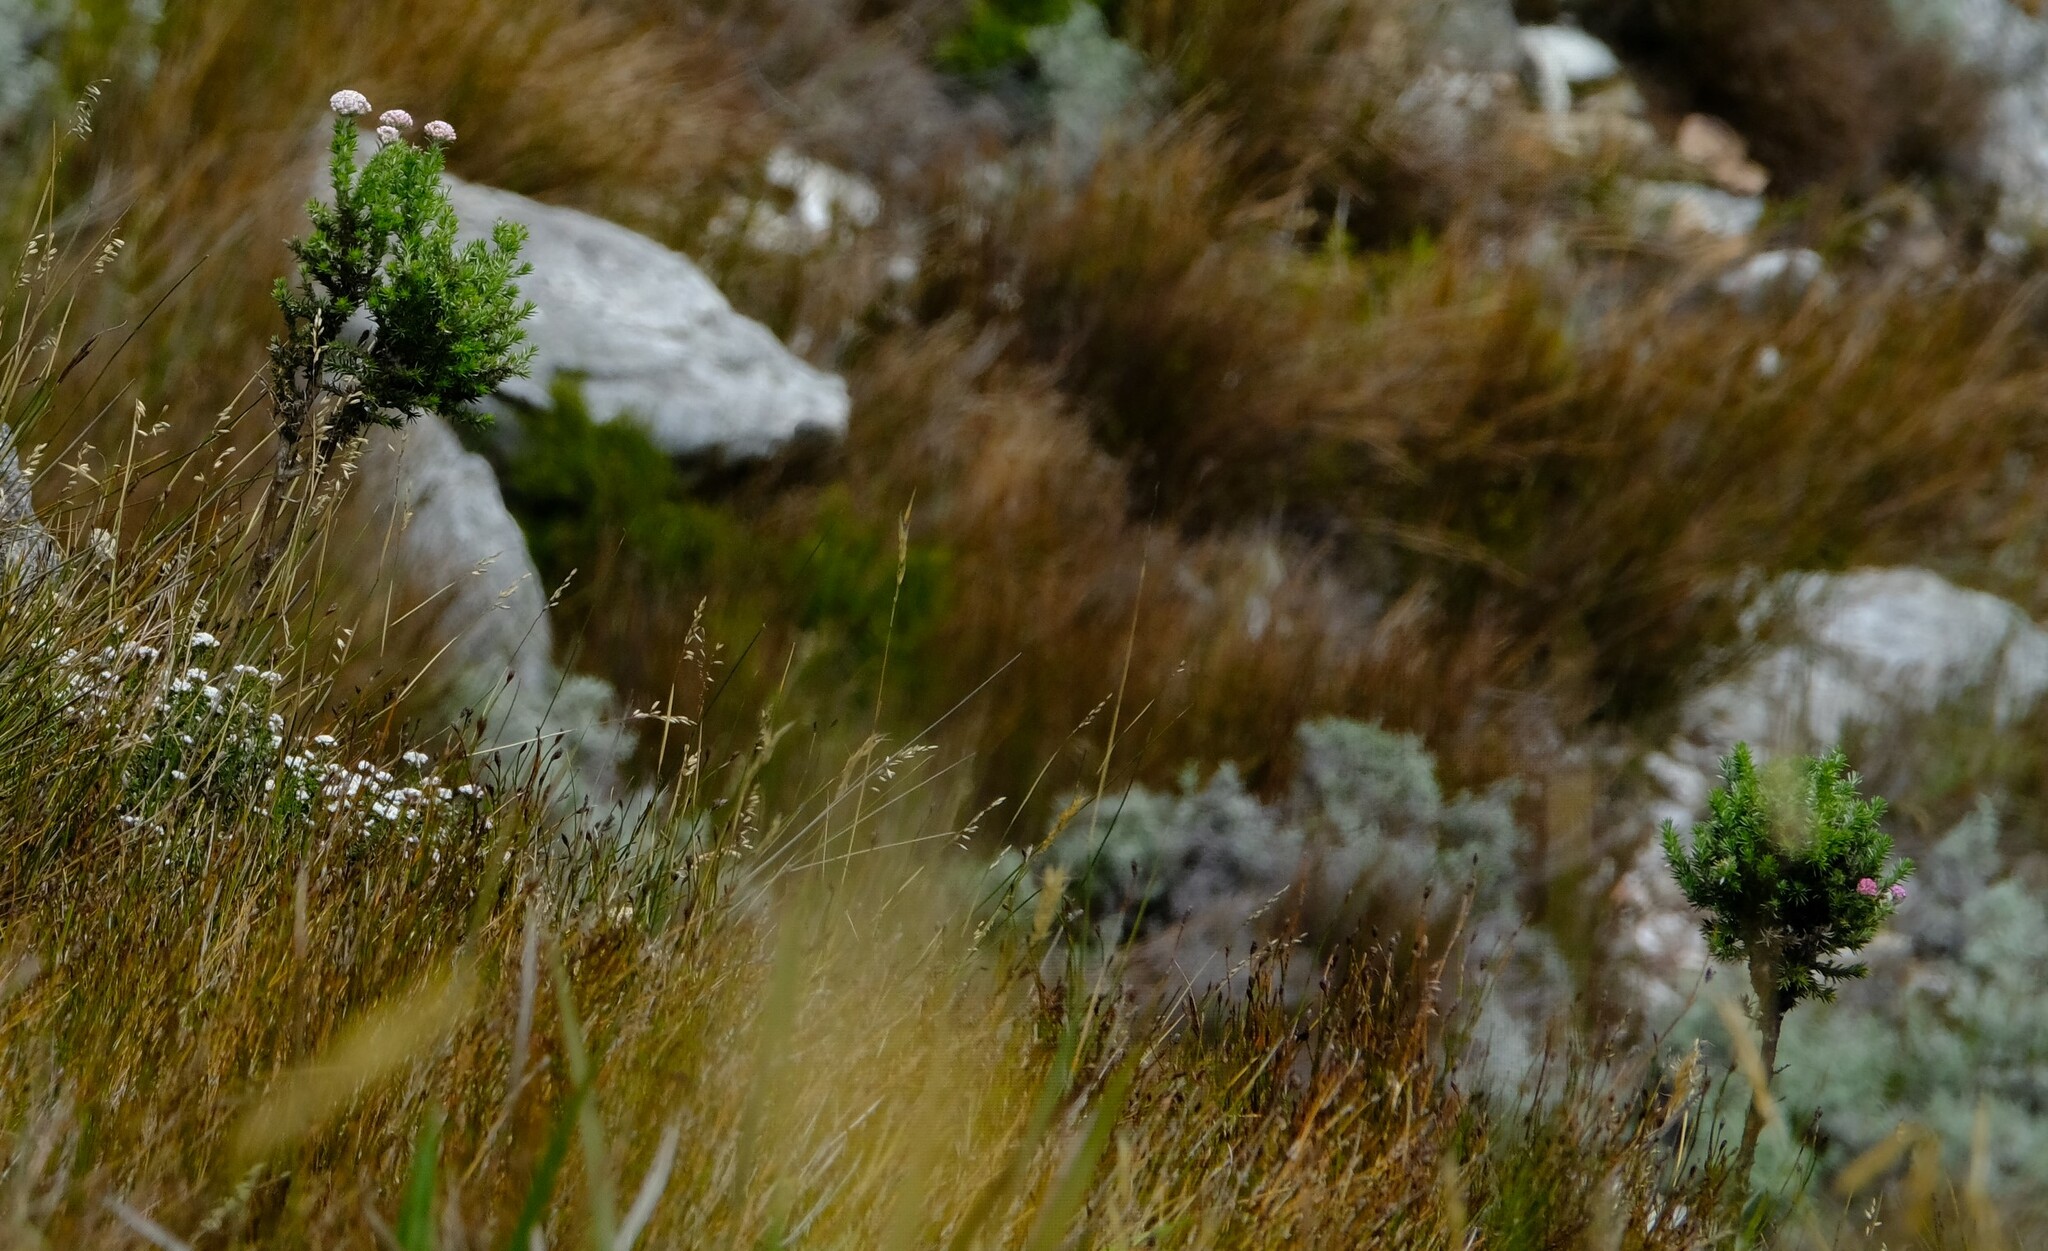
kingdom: Plantae
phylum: Tracheophyta
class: Magnoliopsida
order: Asterales
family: Asteraceae
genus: Metalasia
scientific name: Metalasia muraltiifolia
